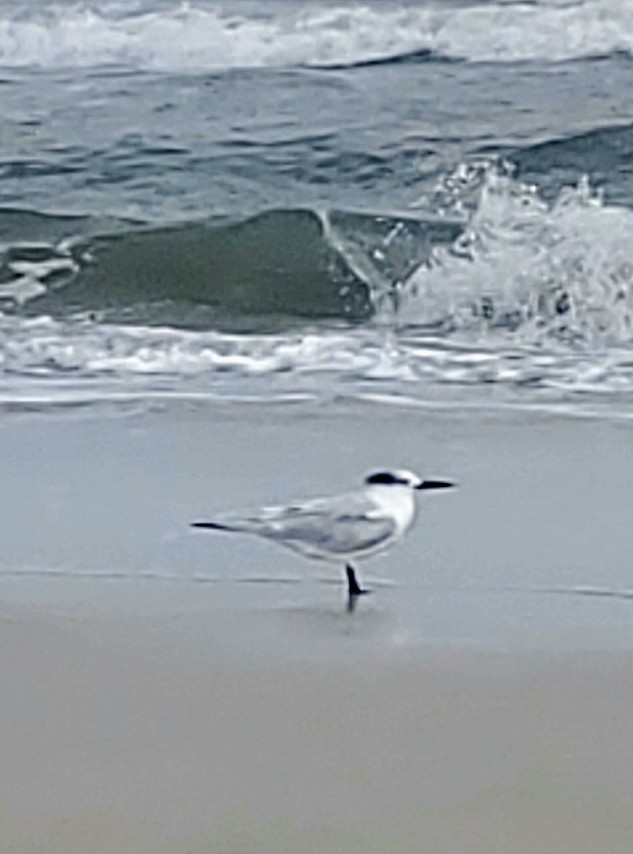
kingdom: Animalia
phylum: Chordata
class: Aves
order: Charadriiformes
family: Laridae
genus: Thalasseus
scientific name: Thalasseus sandvicensis
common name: Sandwich tern
